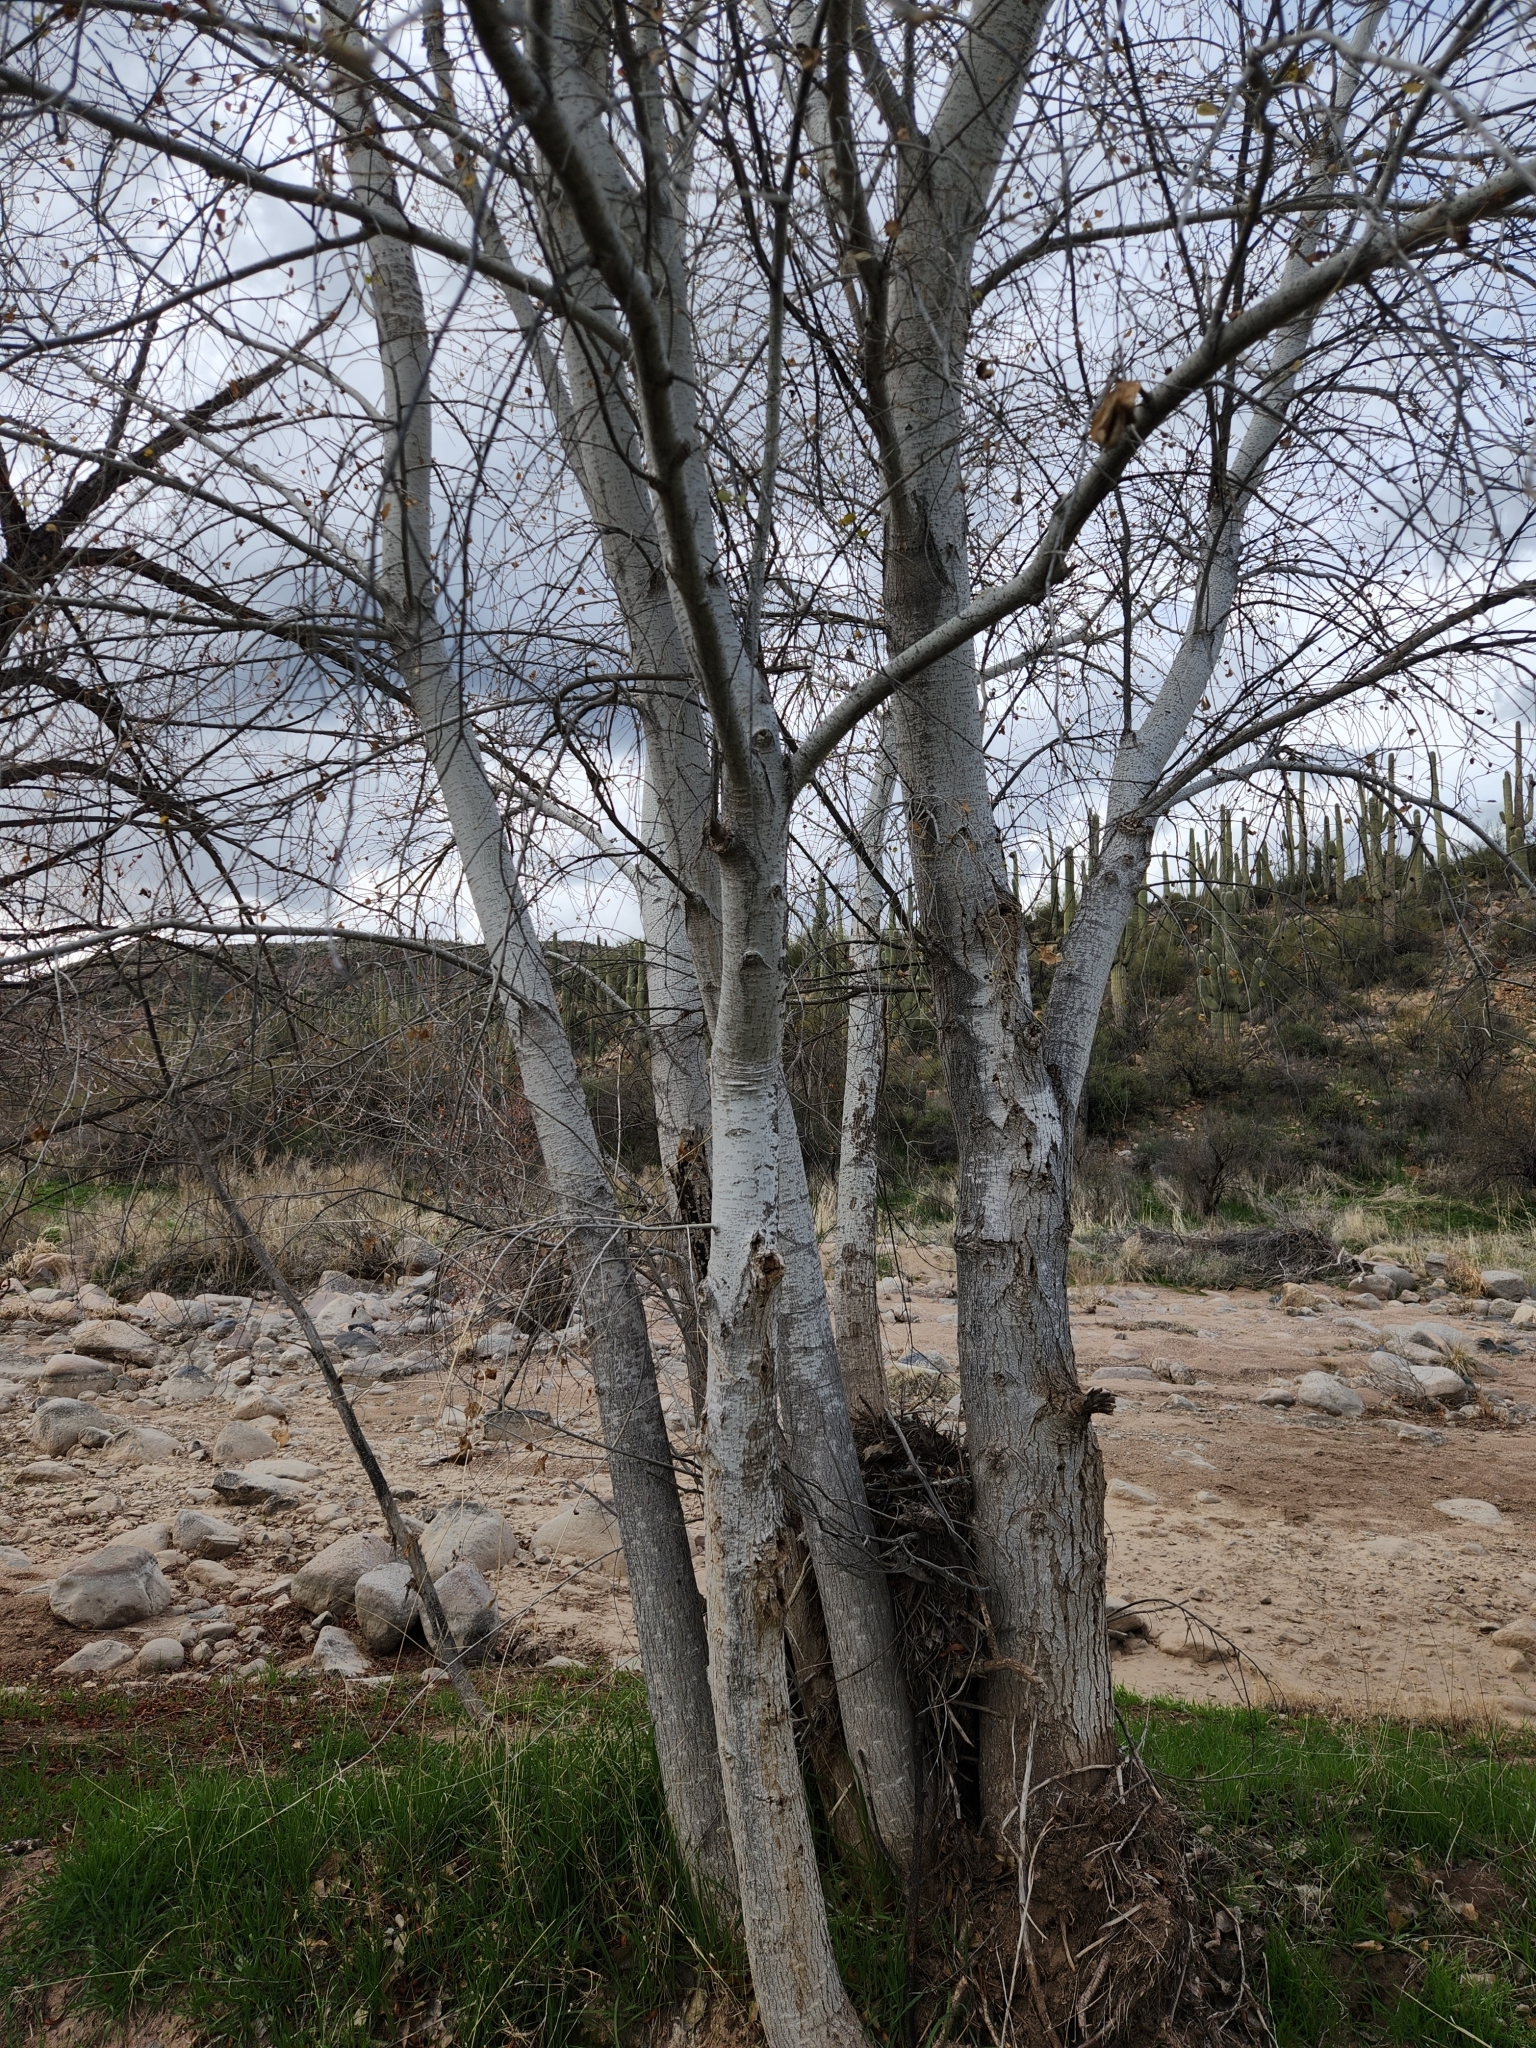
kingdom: Plantae
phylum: Tracheophyta
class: Magnoliopsida
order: Malpighiales
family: Salicaceae
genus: Populus
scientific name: Populus fremontii
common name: Fremont's cottonwood
